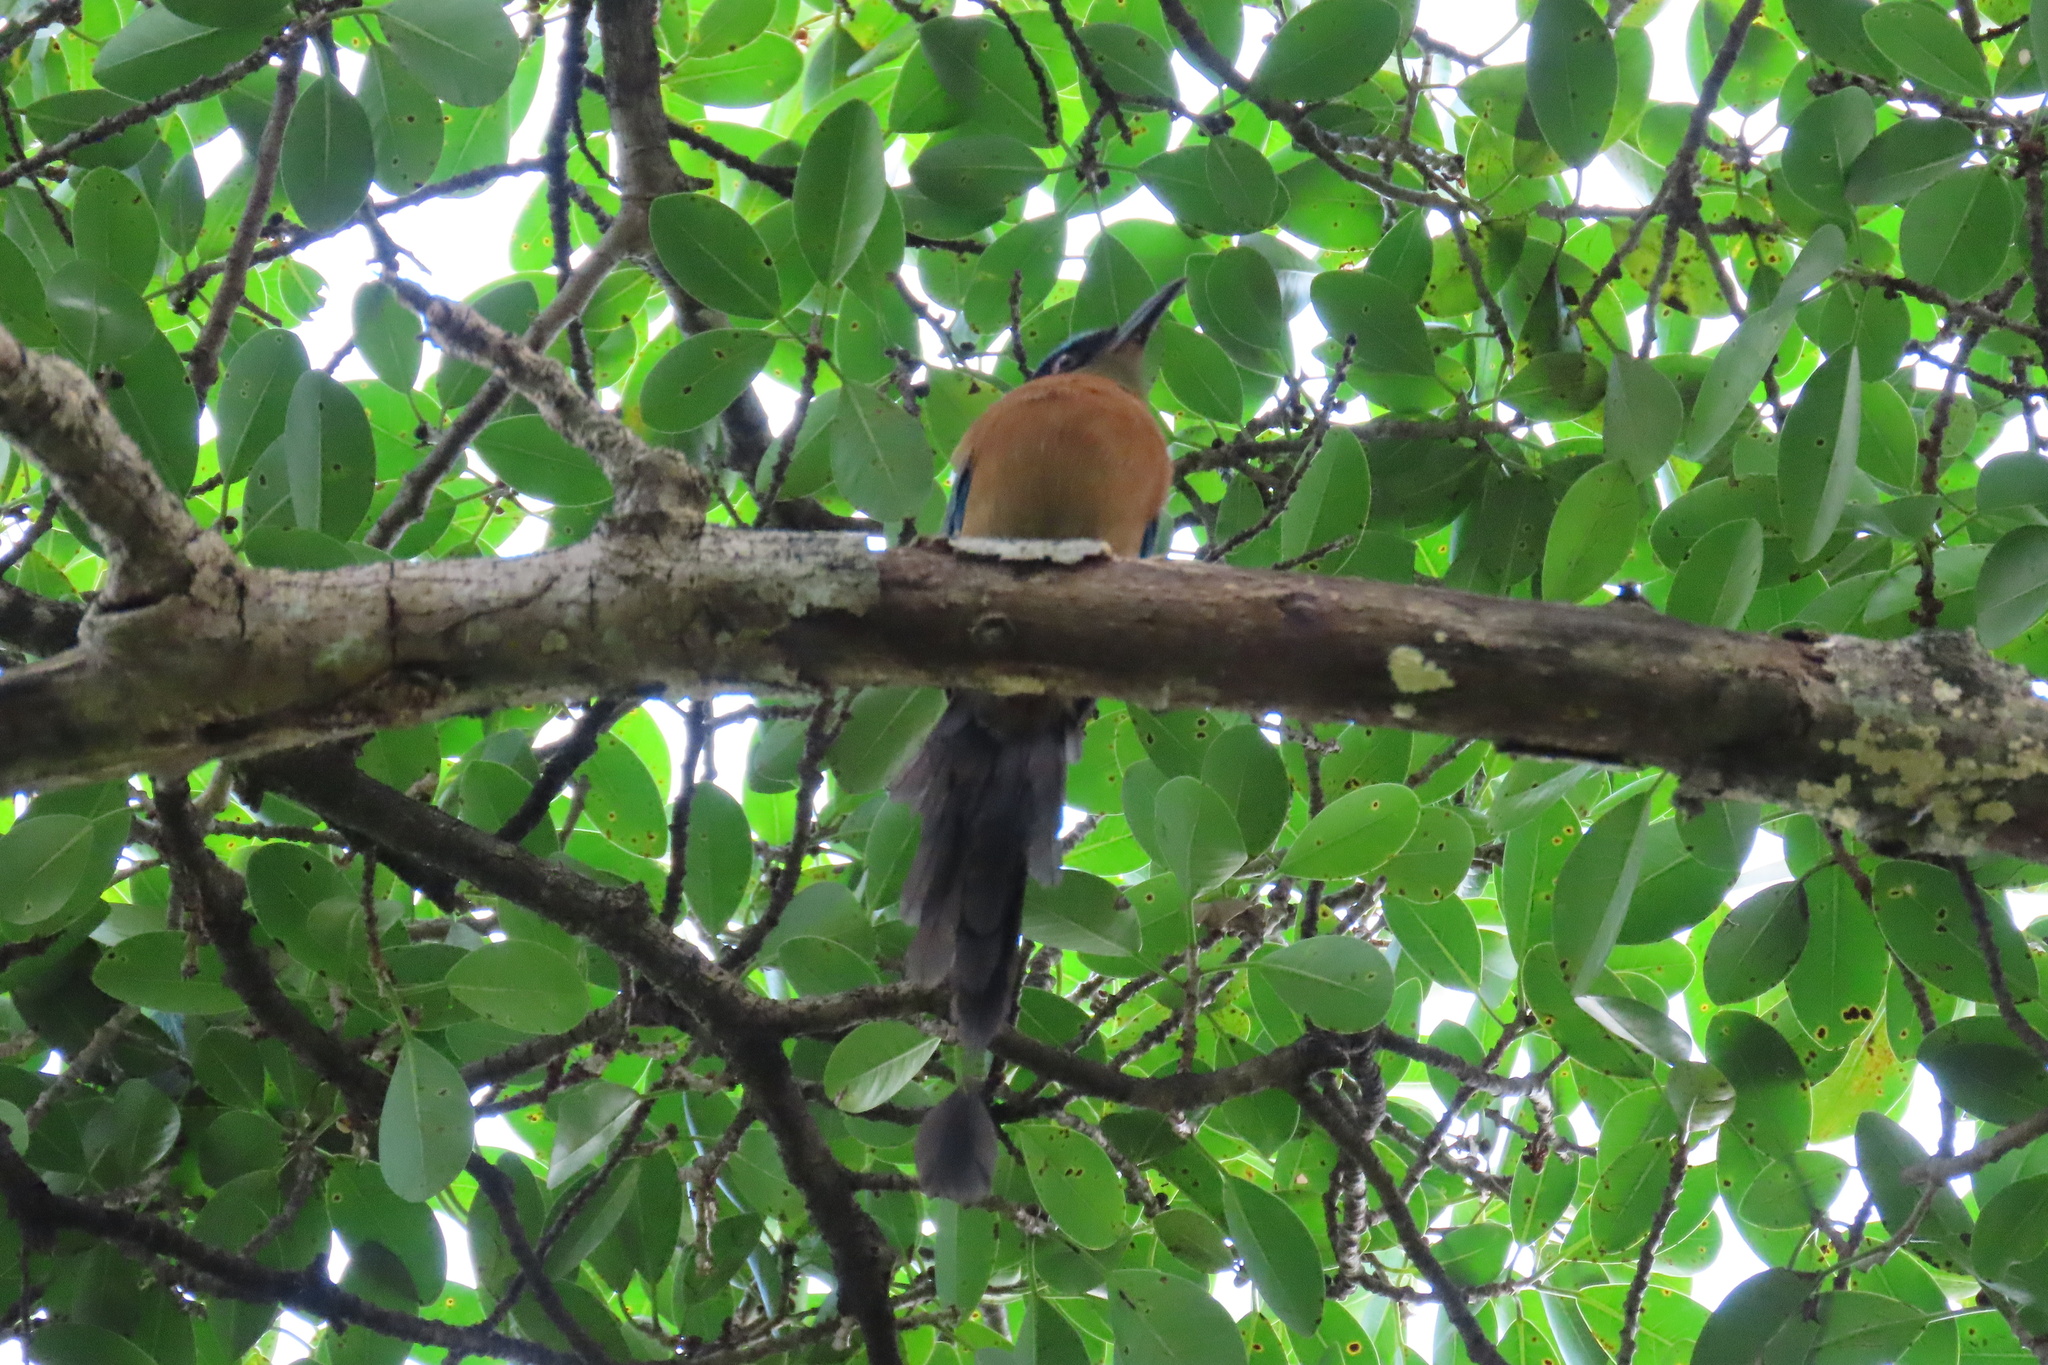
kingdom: Animalia
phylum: Chordata
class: Aves
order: Coraciiformes
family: Momotidae
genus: Momotus
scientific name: Momotus lessonii
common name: Lesson's motmot
